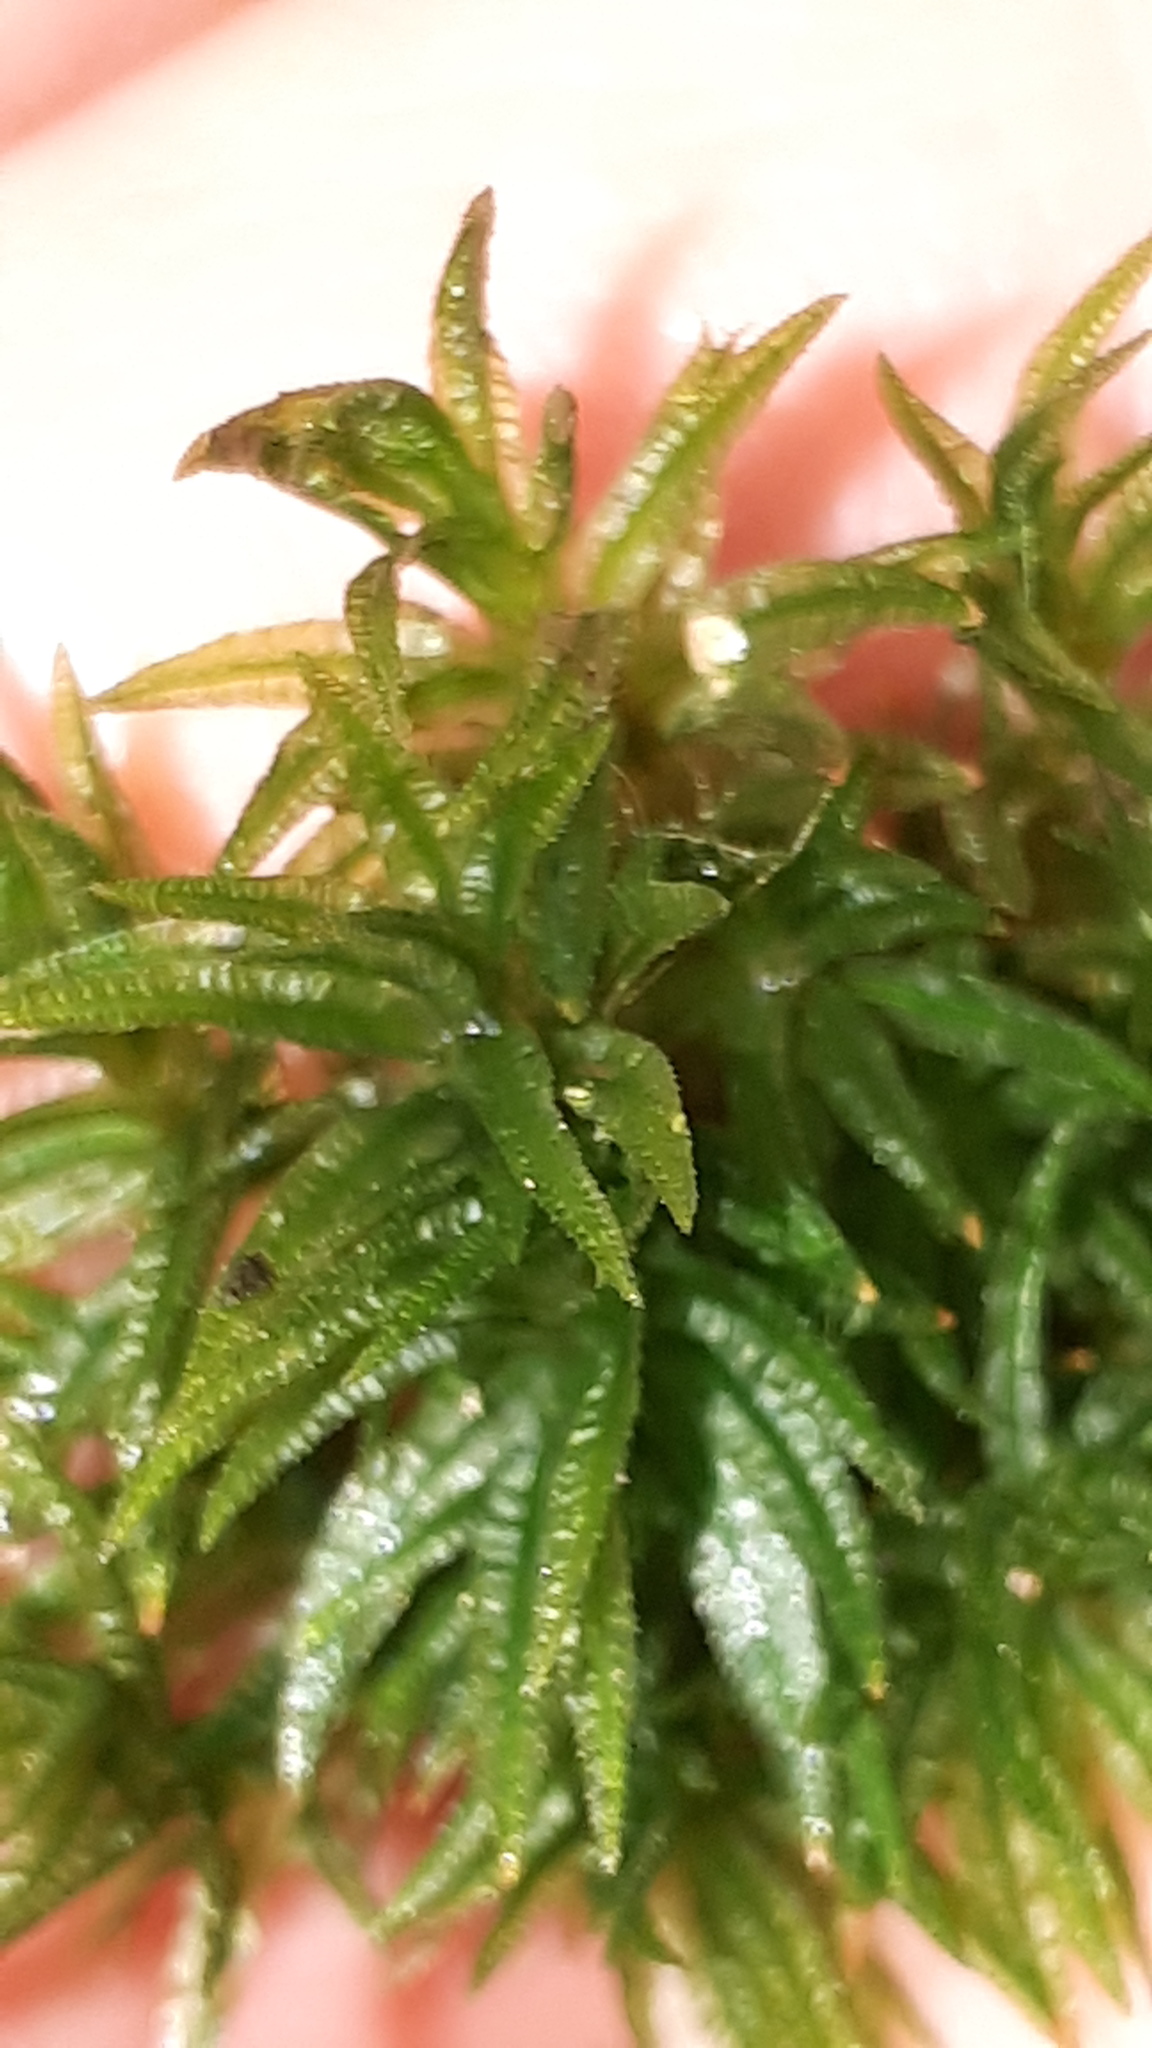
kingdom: Plantae
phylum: Bryophyta
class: Polytrichopsida
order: Polytrichales
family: Polytrichaceae
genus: Atrichum
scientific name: Atrichum undulatum
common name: Common smoothcap
